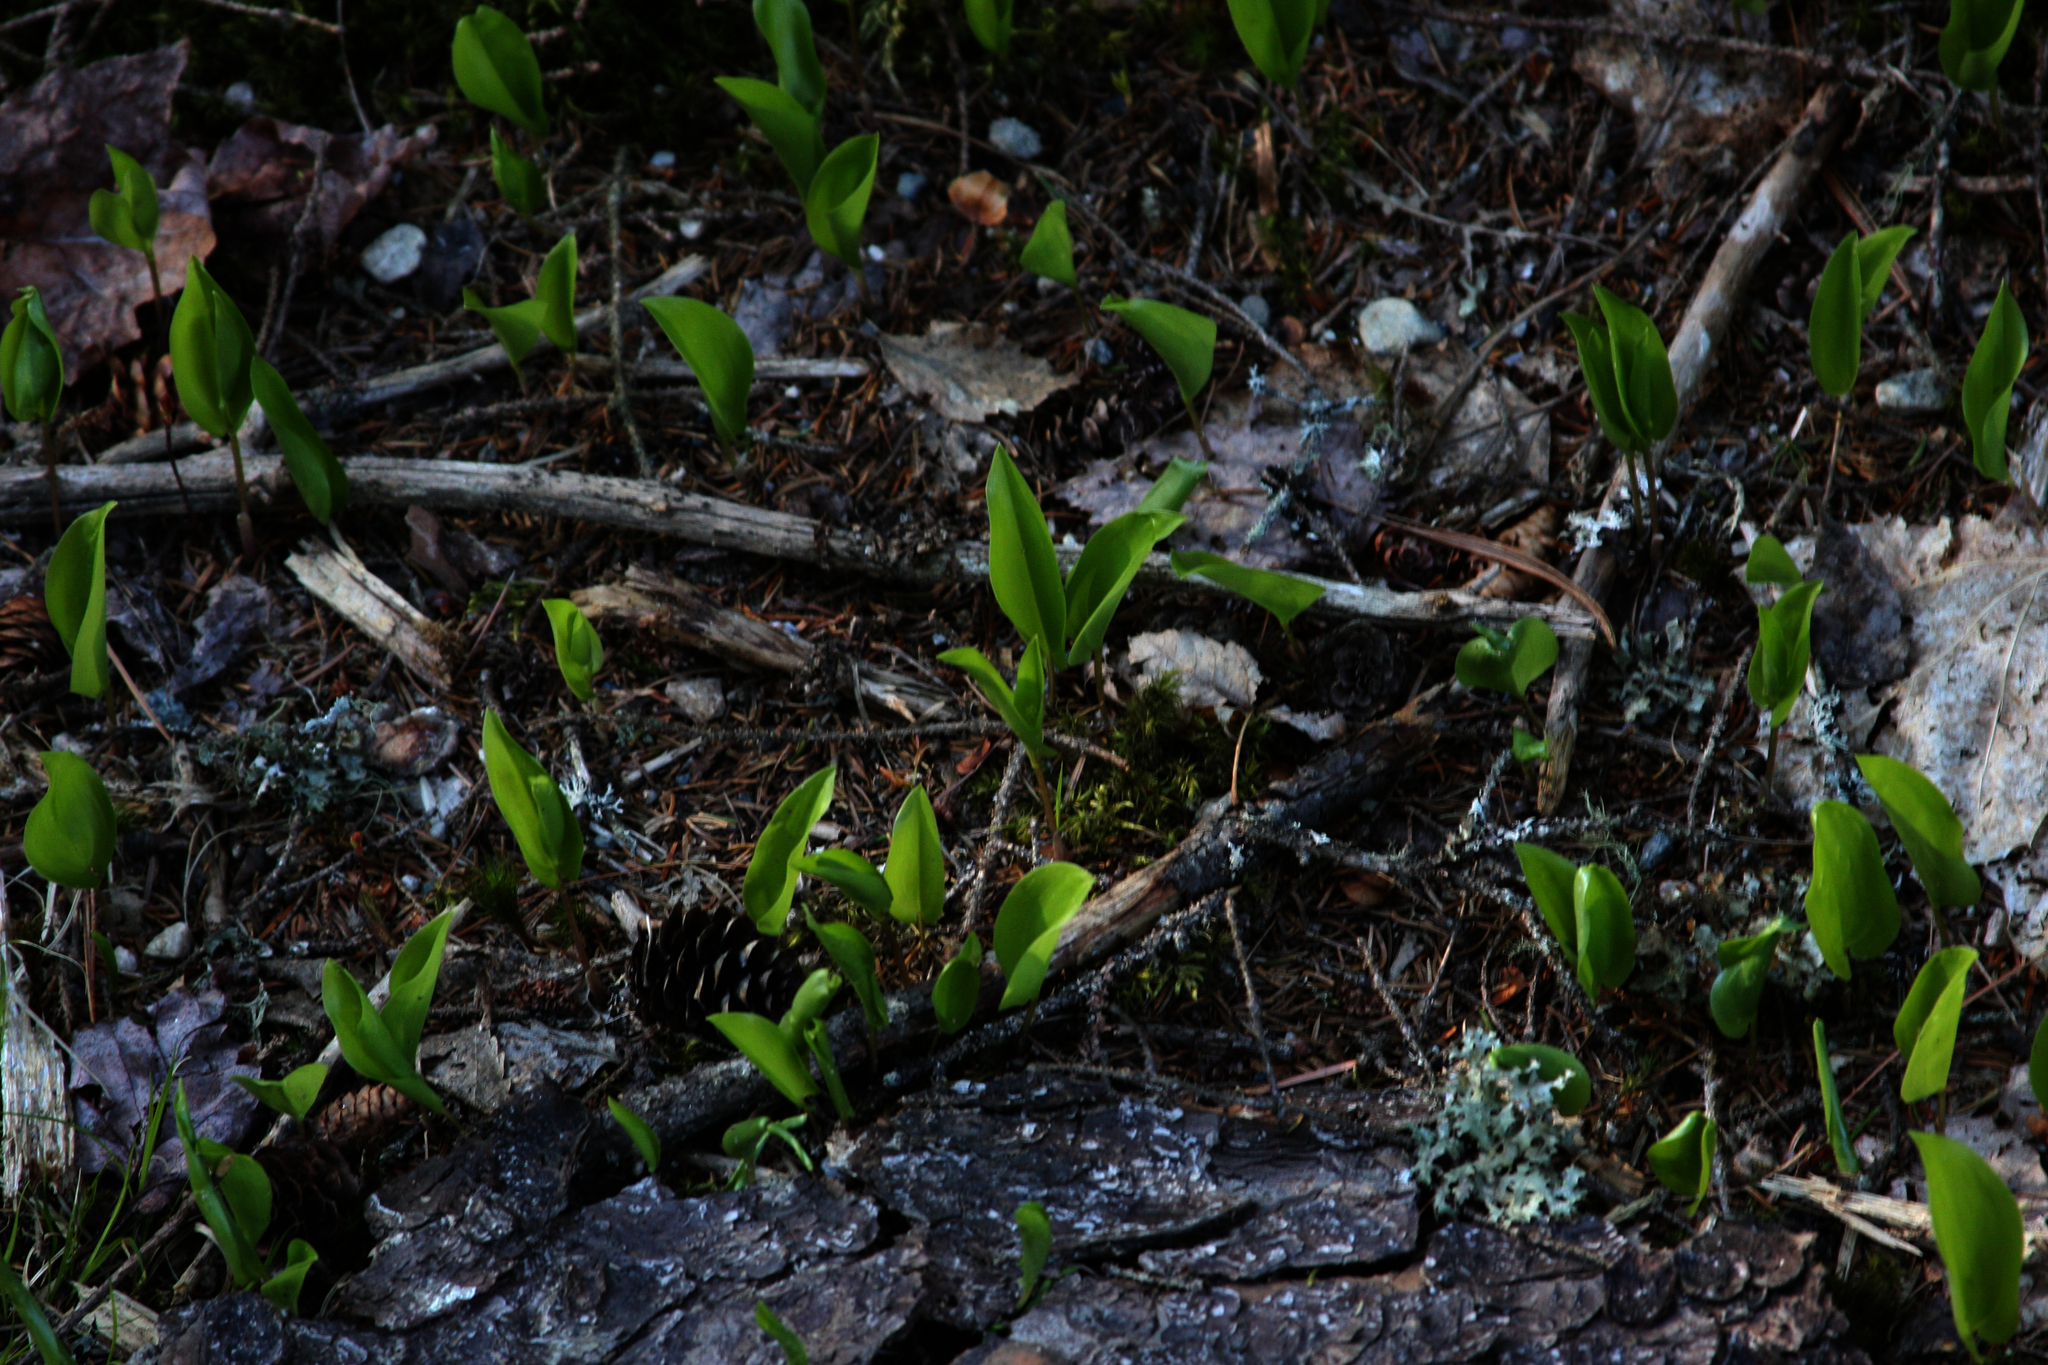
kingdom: Plantae
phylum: Tracheophyta
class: Liliopsida
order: Asparagales
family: Asparagaceae
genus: Maianthemum
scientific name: Maianthemum canadense
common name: False lily-of-the-valley
